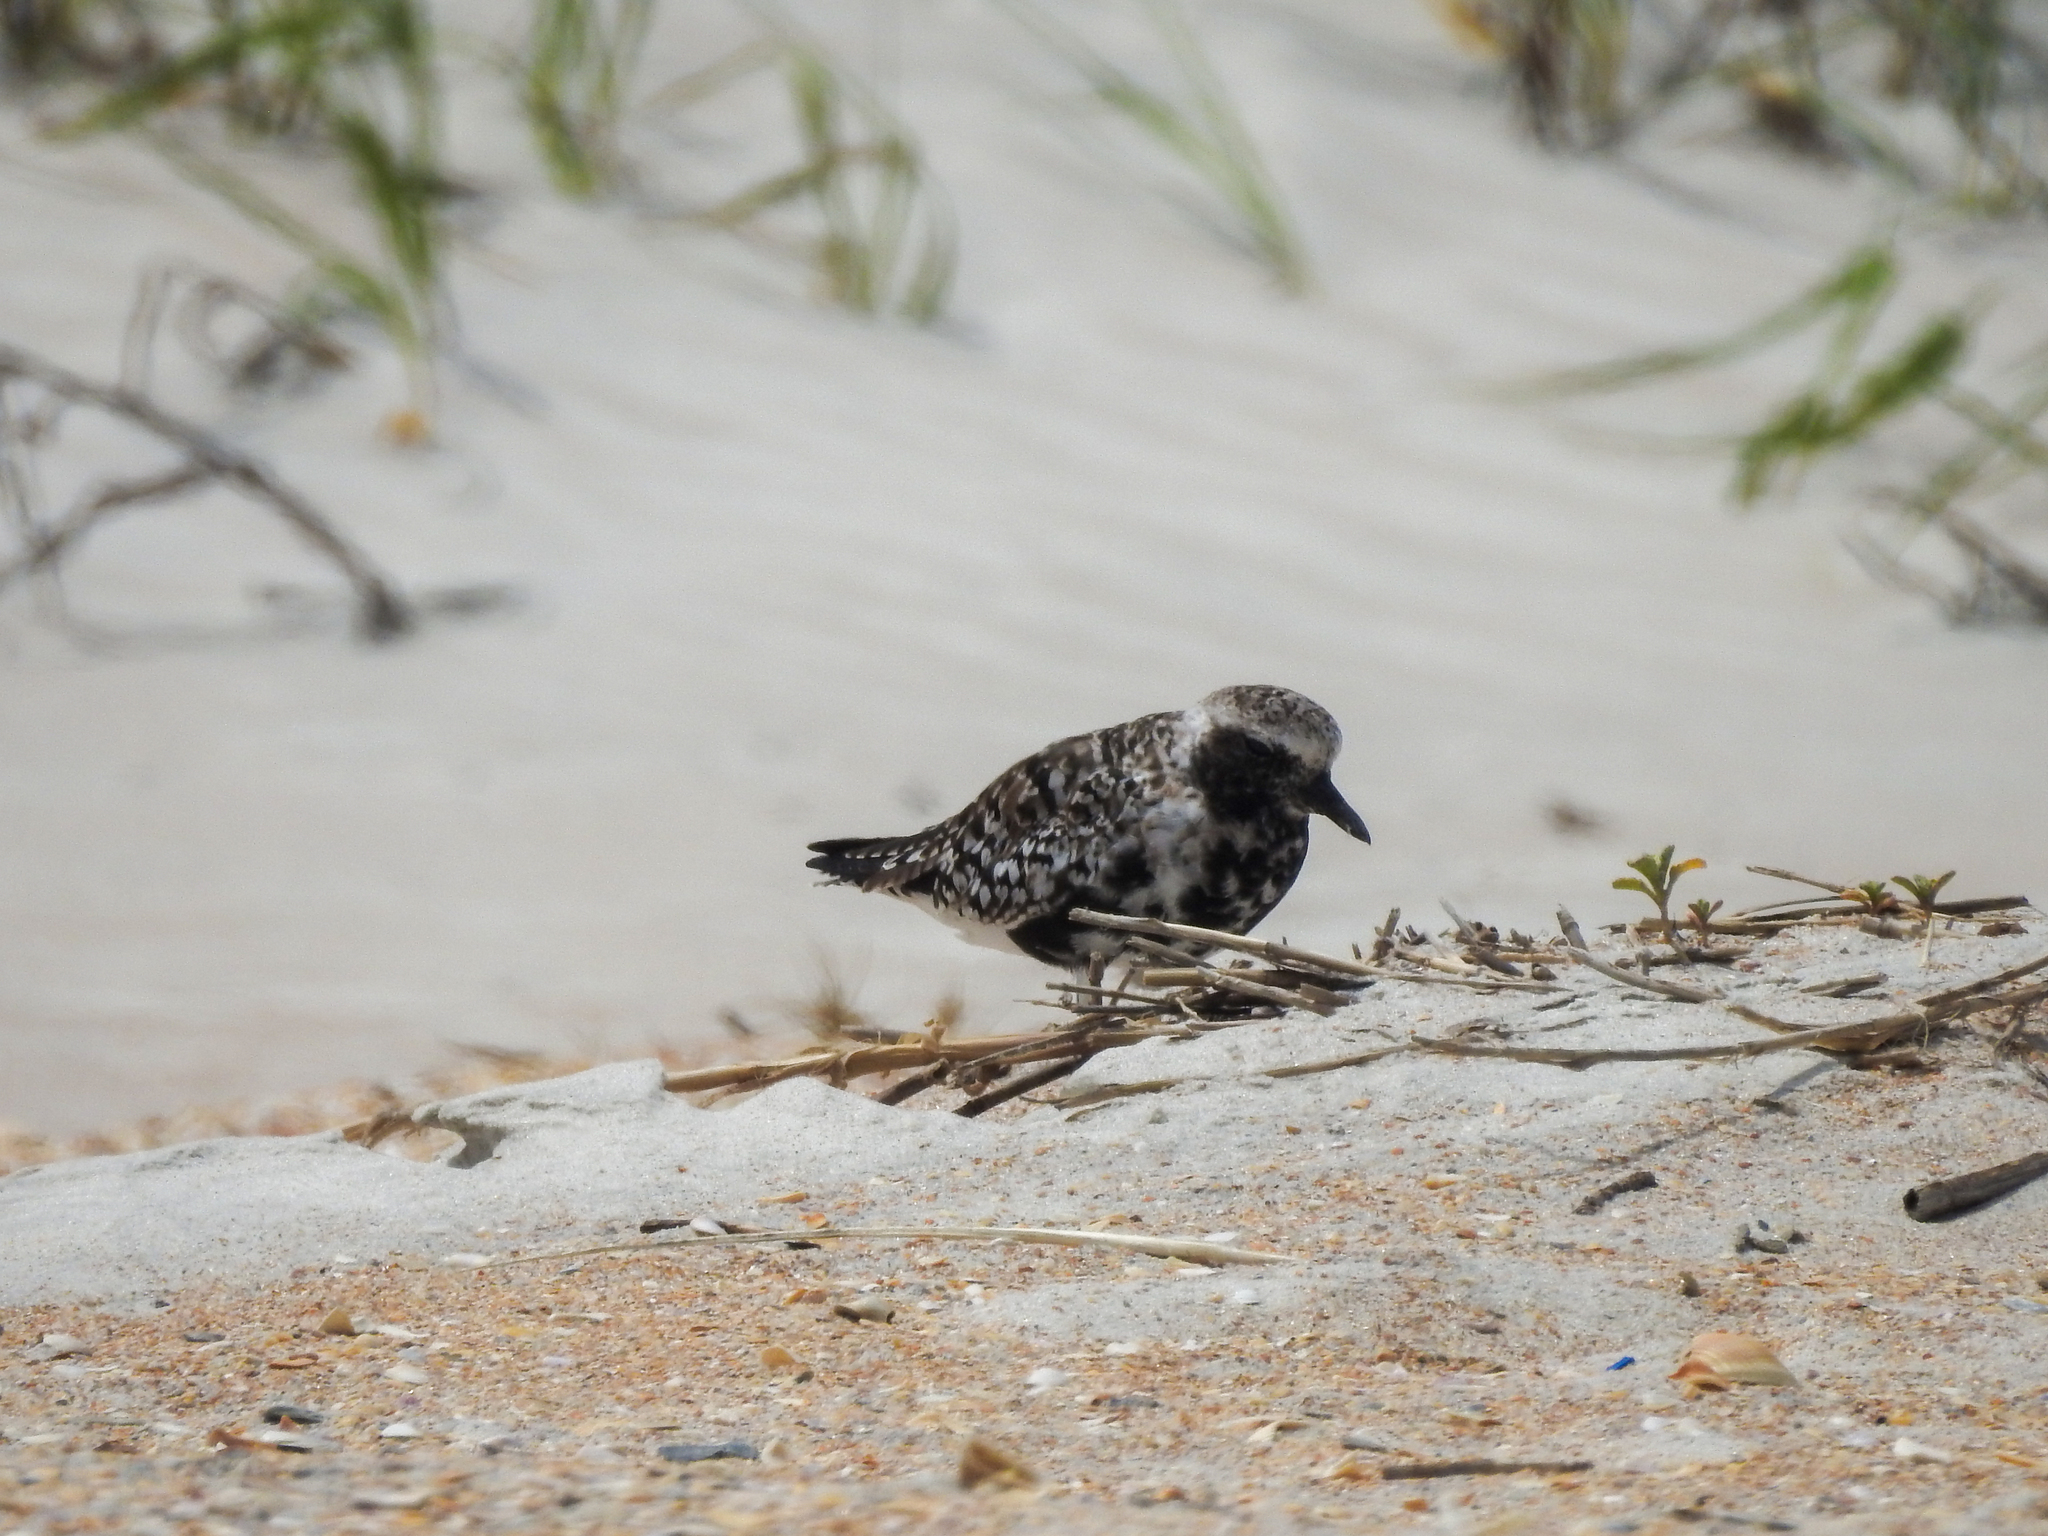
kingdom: Animalia
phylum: Chordata
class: Aves
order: Charadriiformes
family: Charadriidae
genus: Pluvialis
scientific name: Pluvialis squatarola
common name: Grey plover
